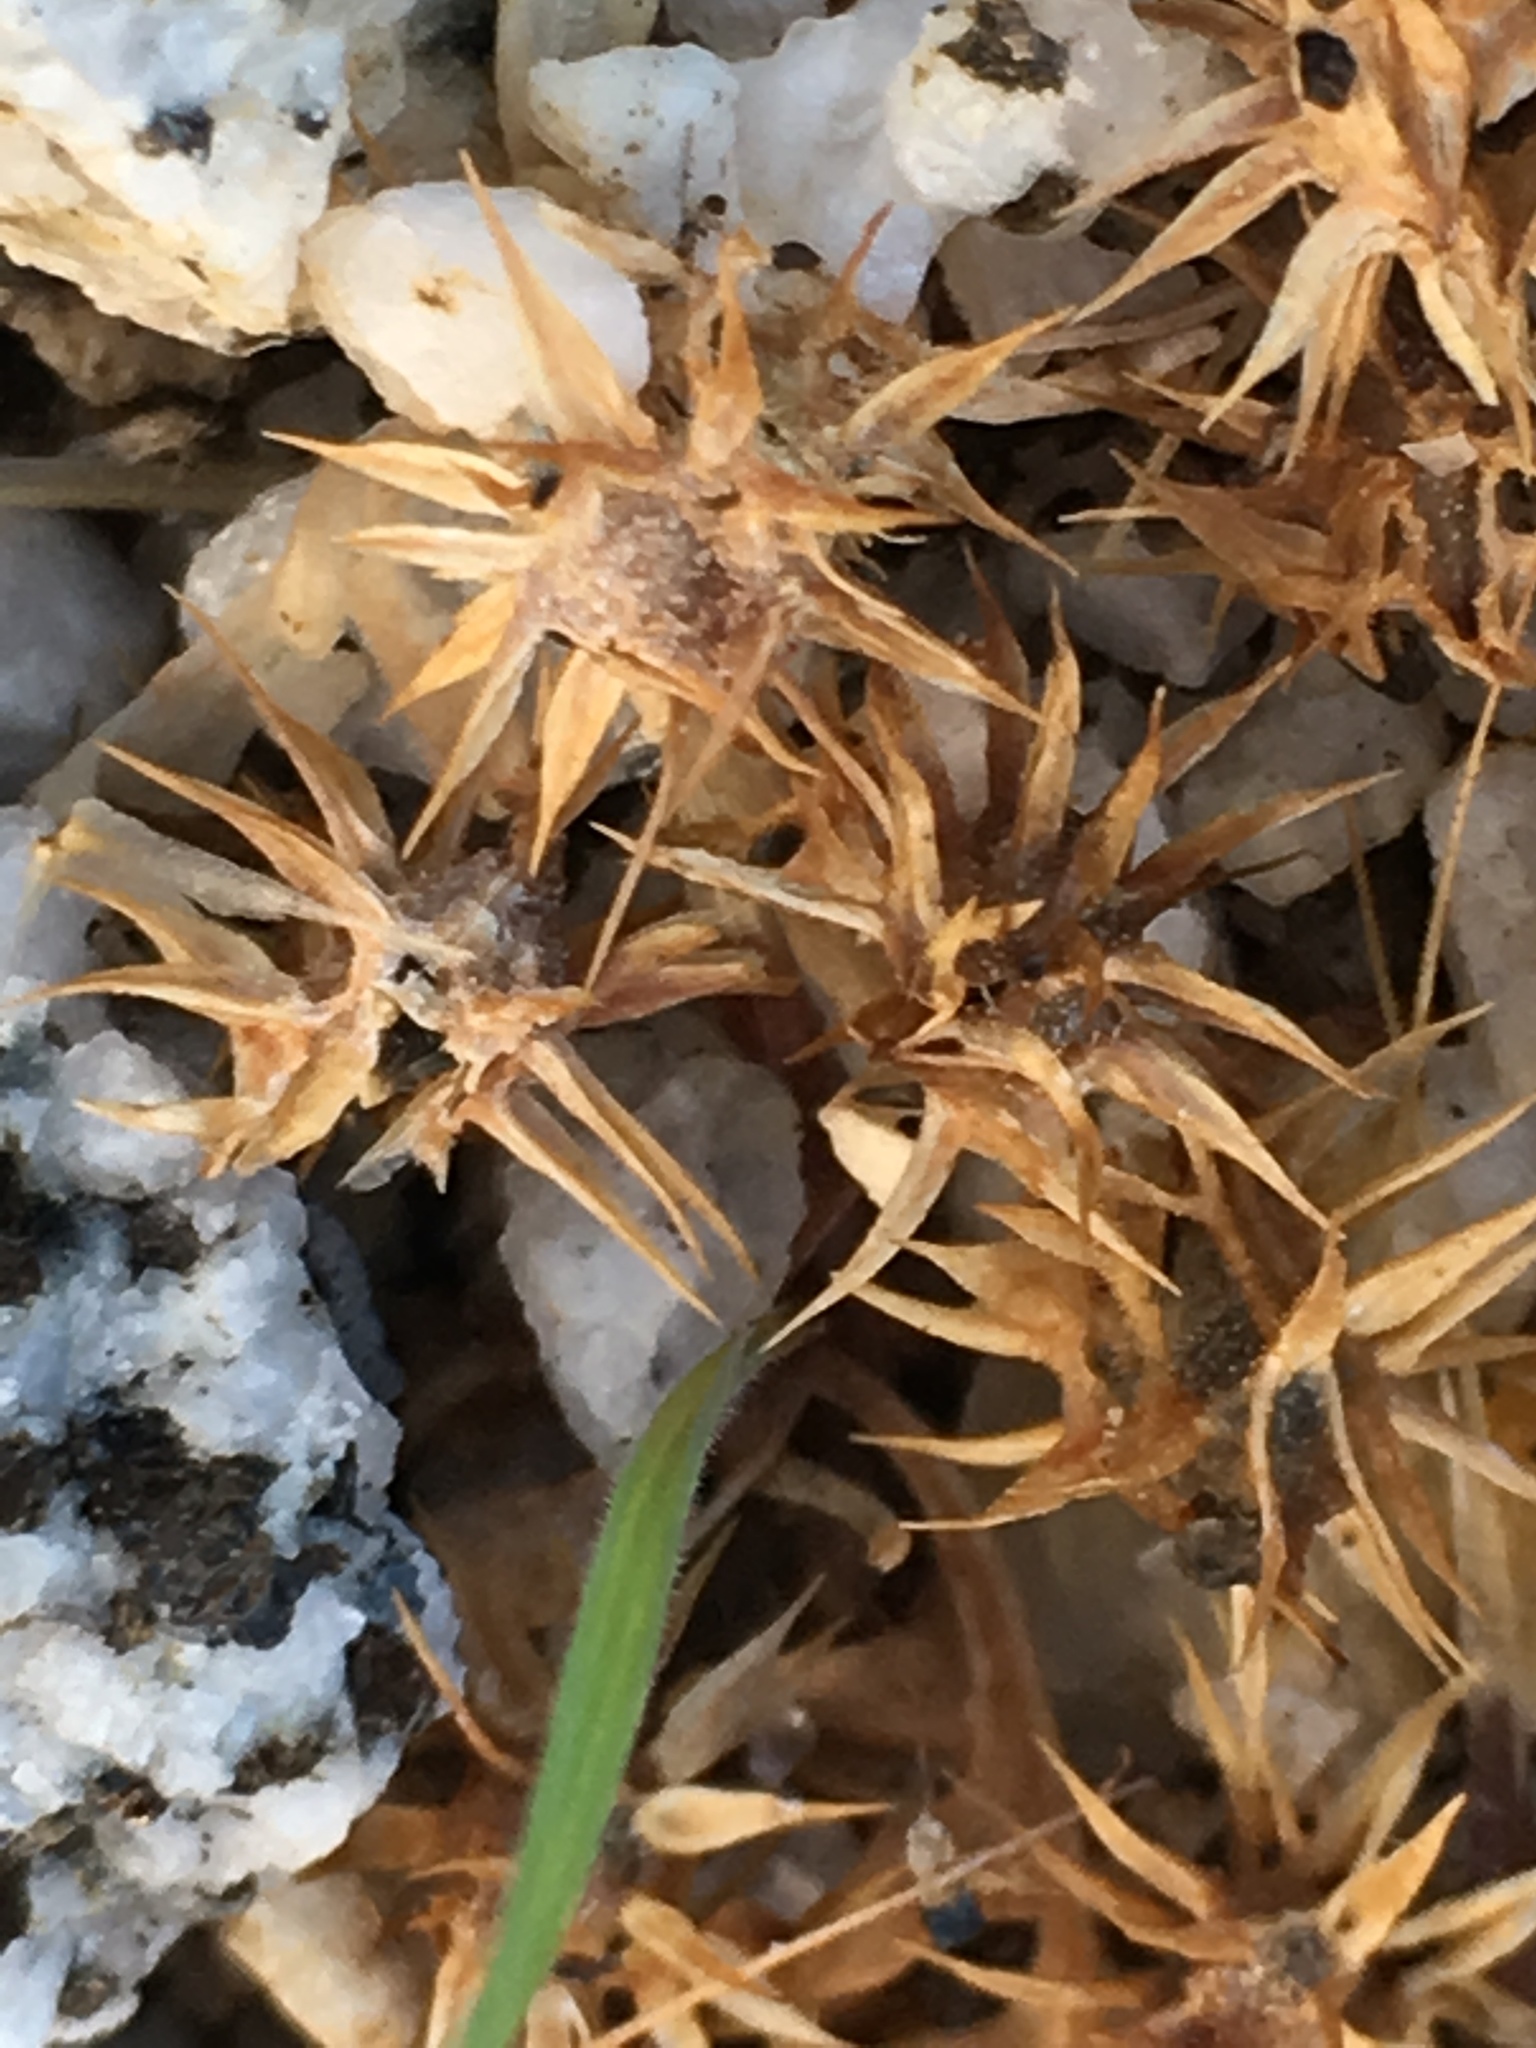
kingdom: Plantae
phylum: Tracheophyta
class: Magnoliopsida
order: Asterales
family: Asteraceae
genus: Ambrosia
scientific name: Ambrosia dumosa
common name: Bur-sage
